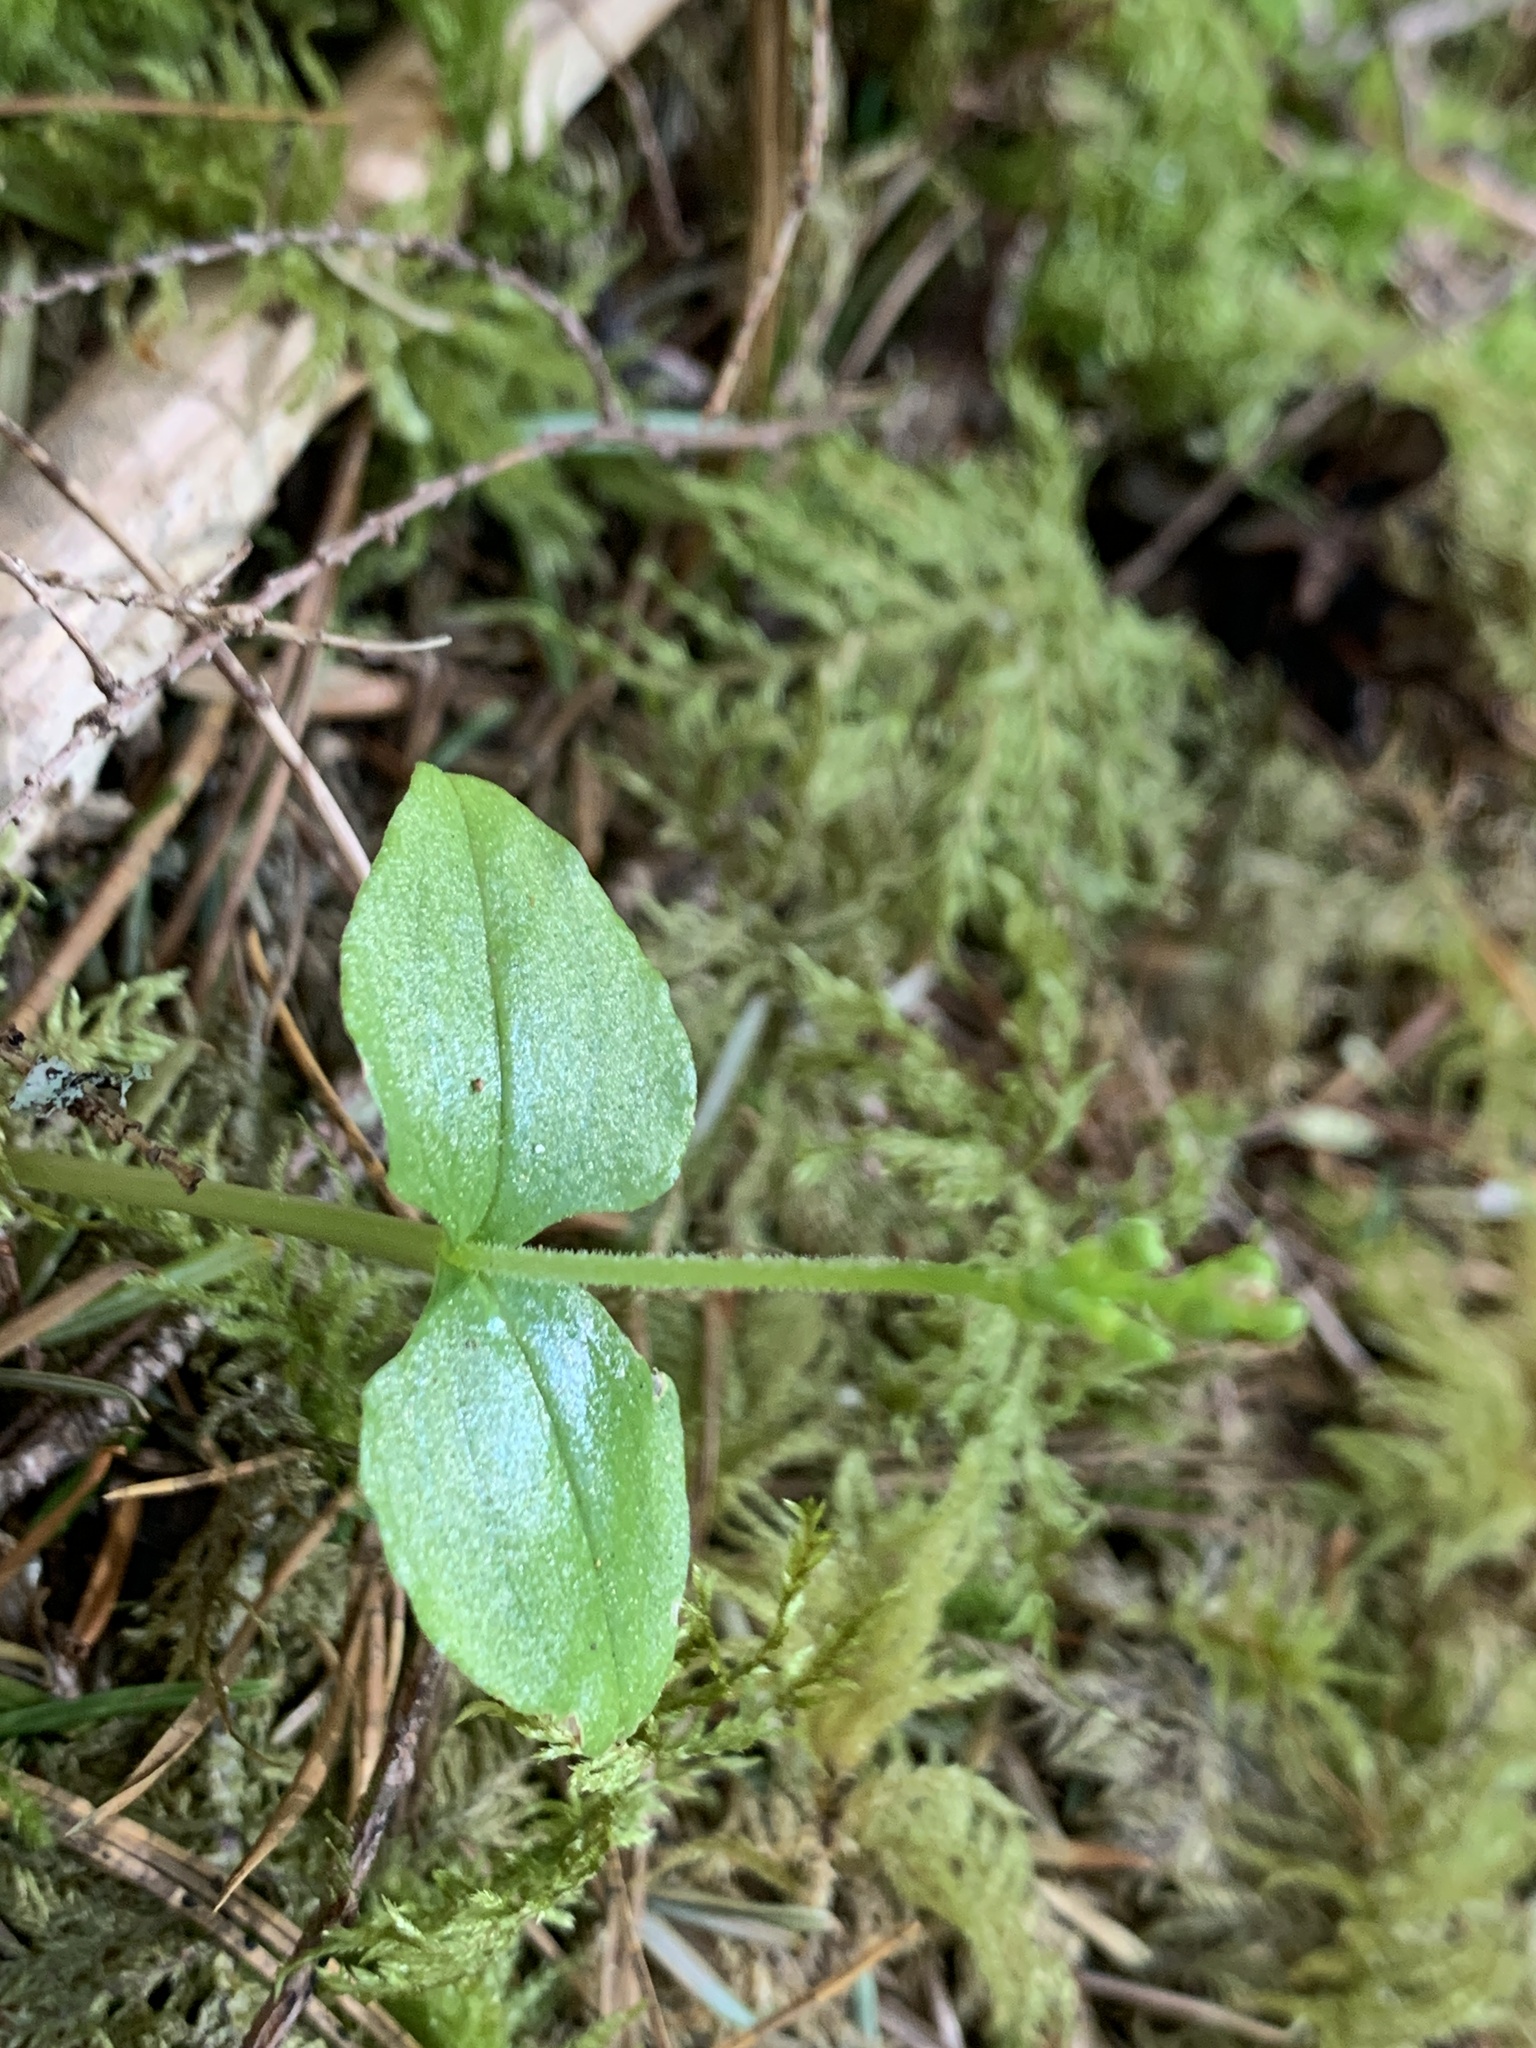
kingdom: Plantae
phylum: Tracheophyta
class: Liliopsida
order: Asparagales
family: Orchidaceae
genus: Neottia
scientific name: Neottia cordata
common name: Lesser twayblade
